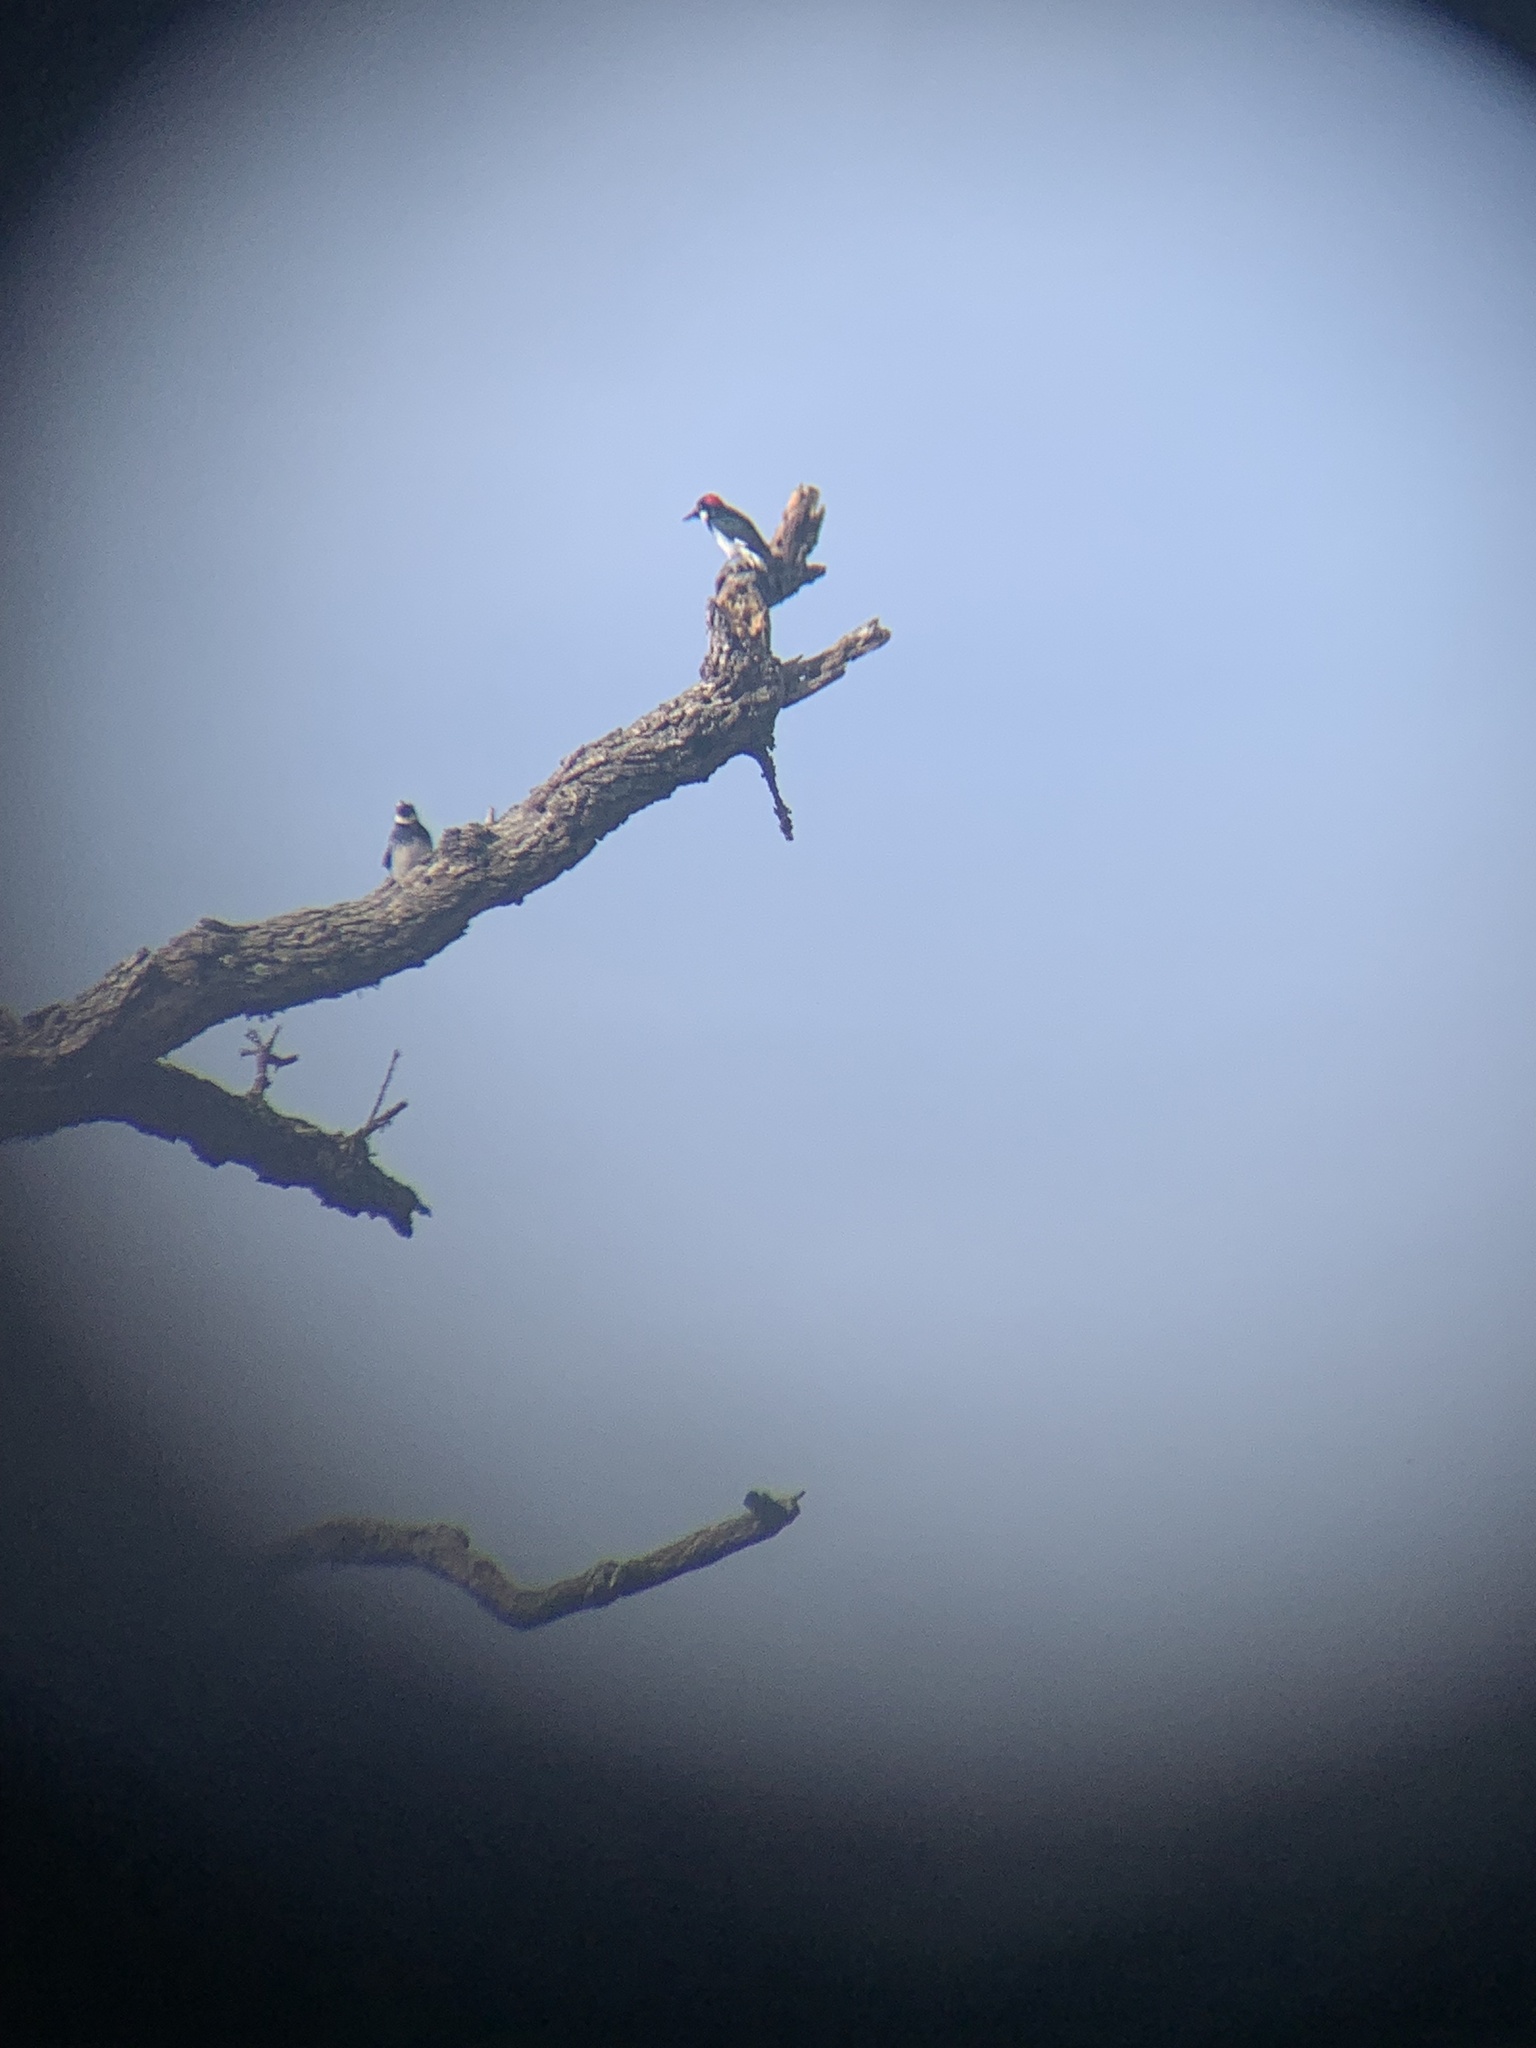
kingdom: Animalia
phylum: Chordata
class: Aves
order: Piciformes
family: Picidae
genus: Melanerpes
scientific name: Melanerpes formicivorus
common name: Acorn woodpecker
